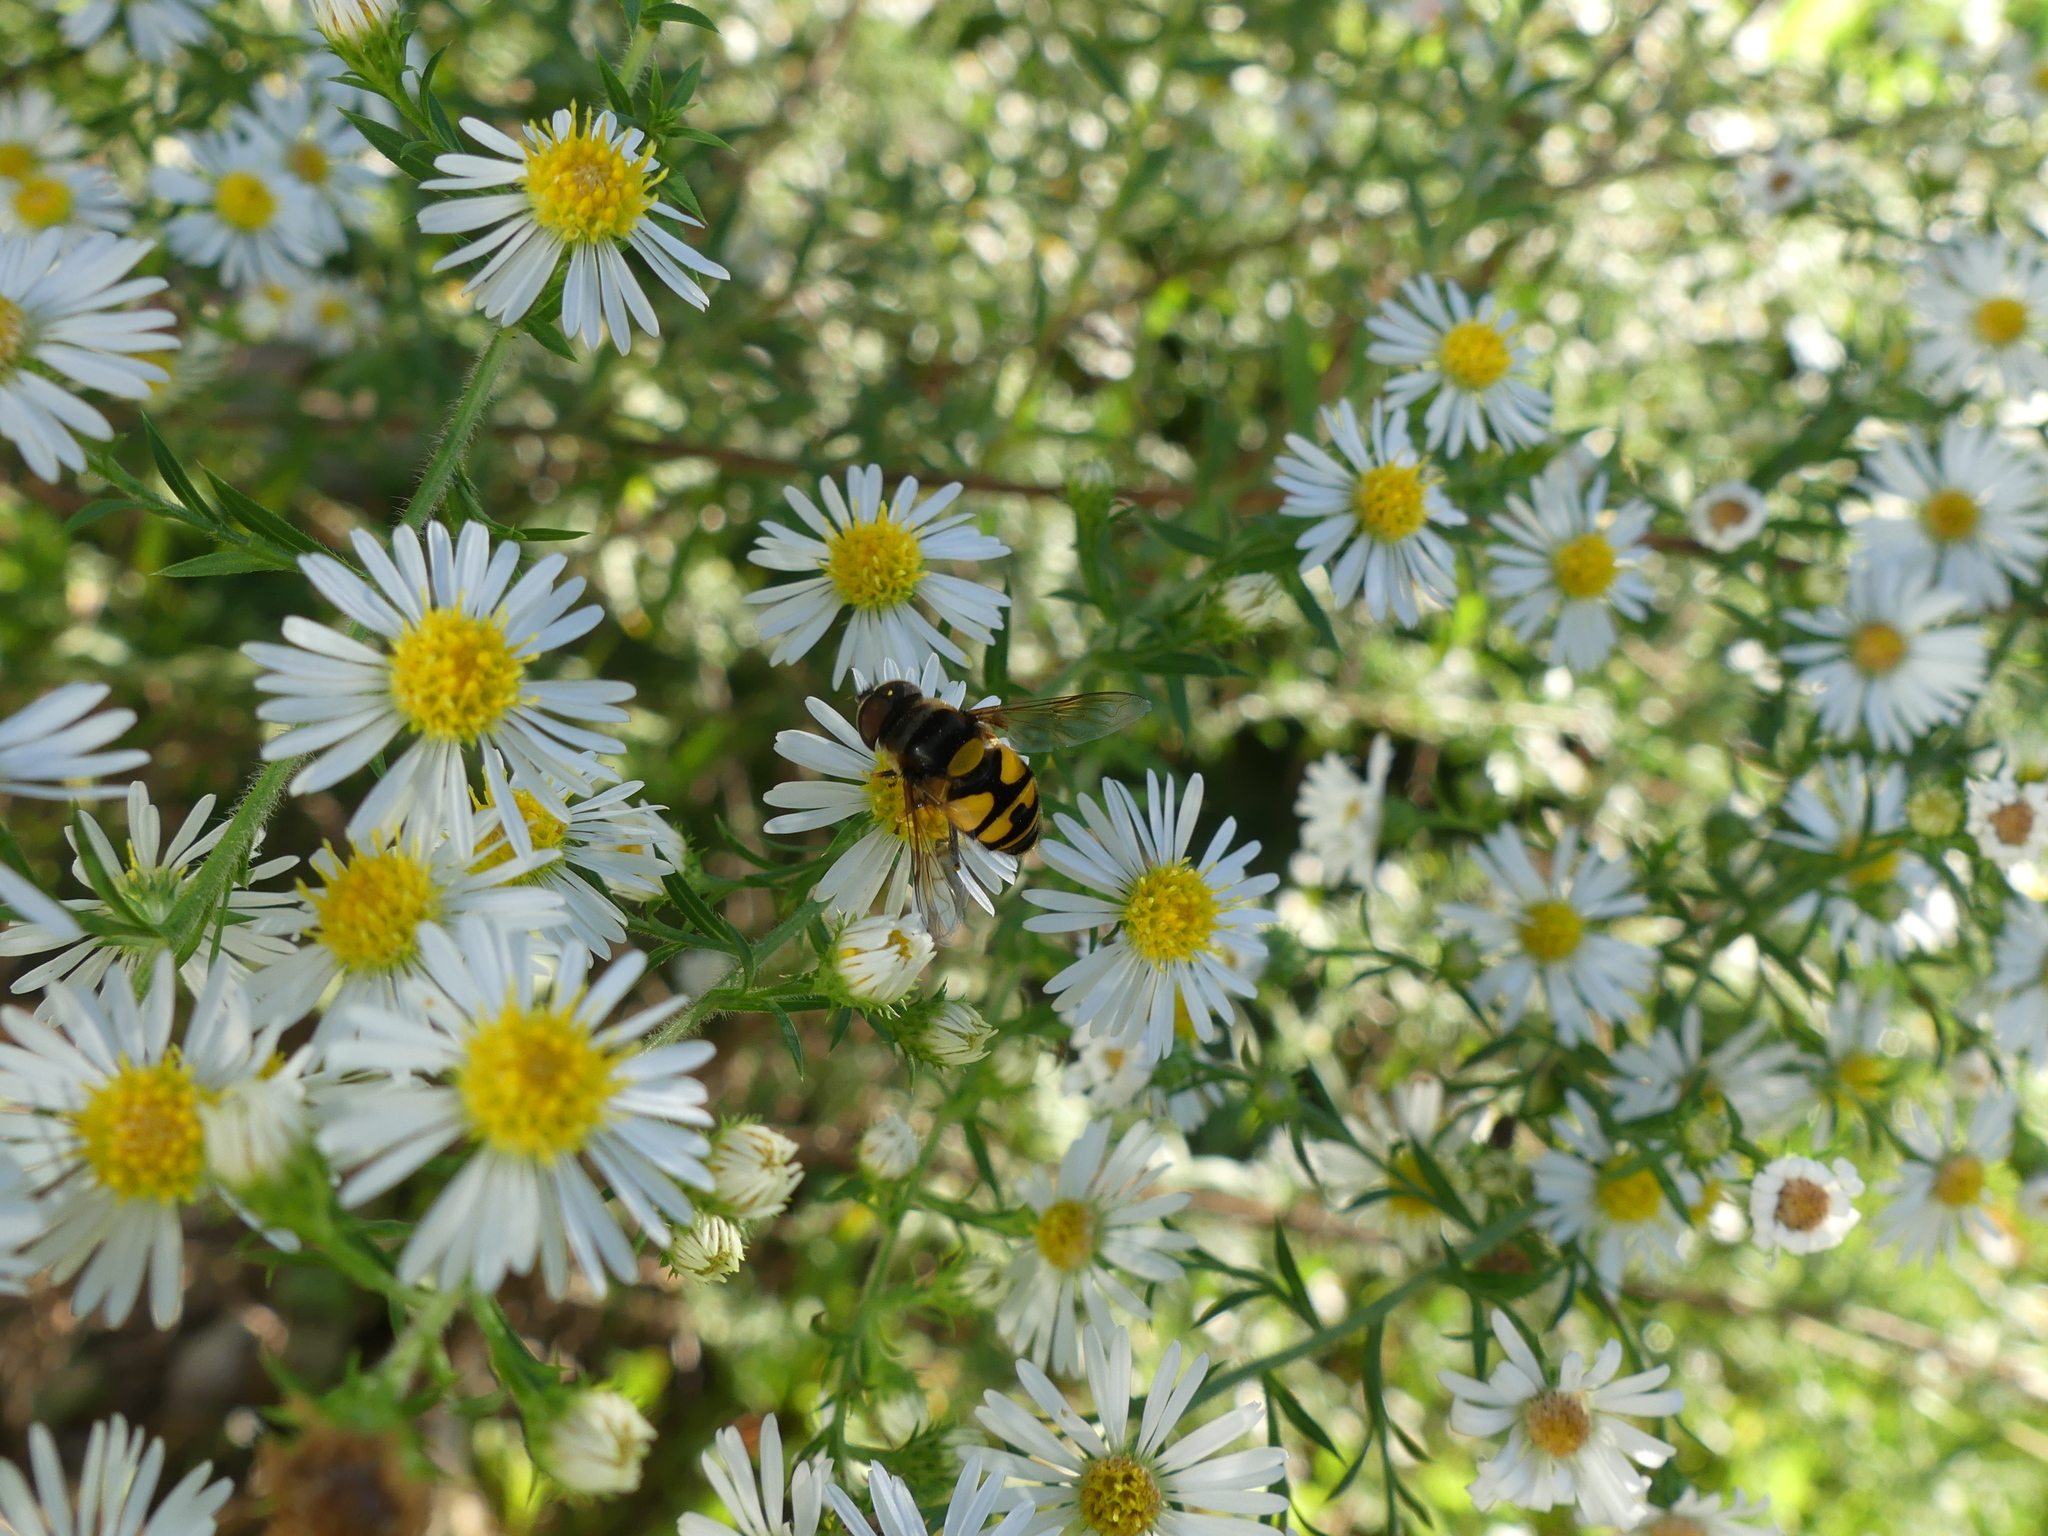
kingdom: Animalia
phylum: Arthropoda
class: Insecta
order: Diptera
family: Syrphidae
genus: Eristalis
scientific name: Eristalis transversa
